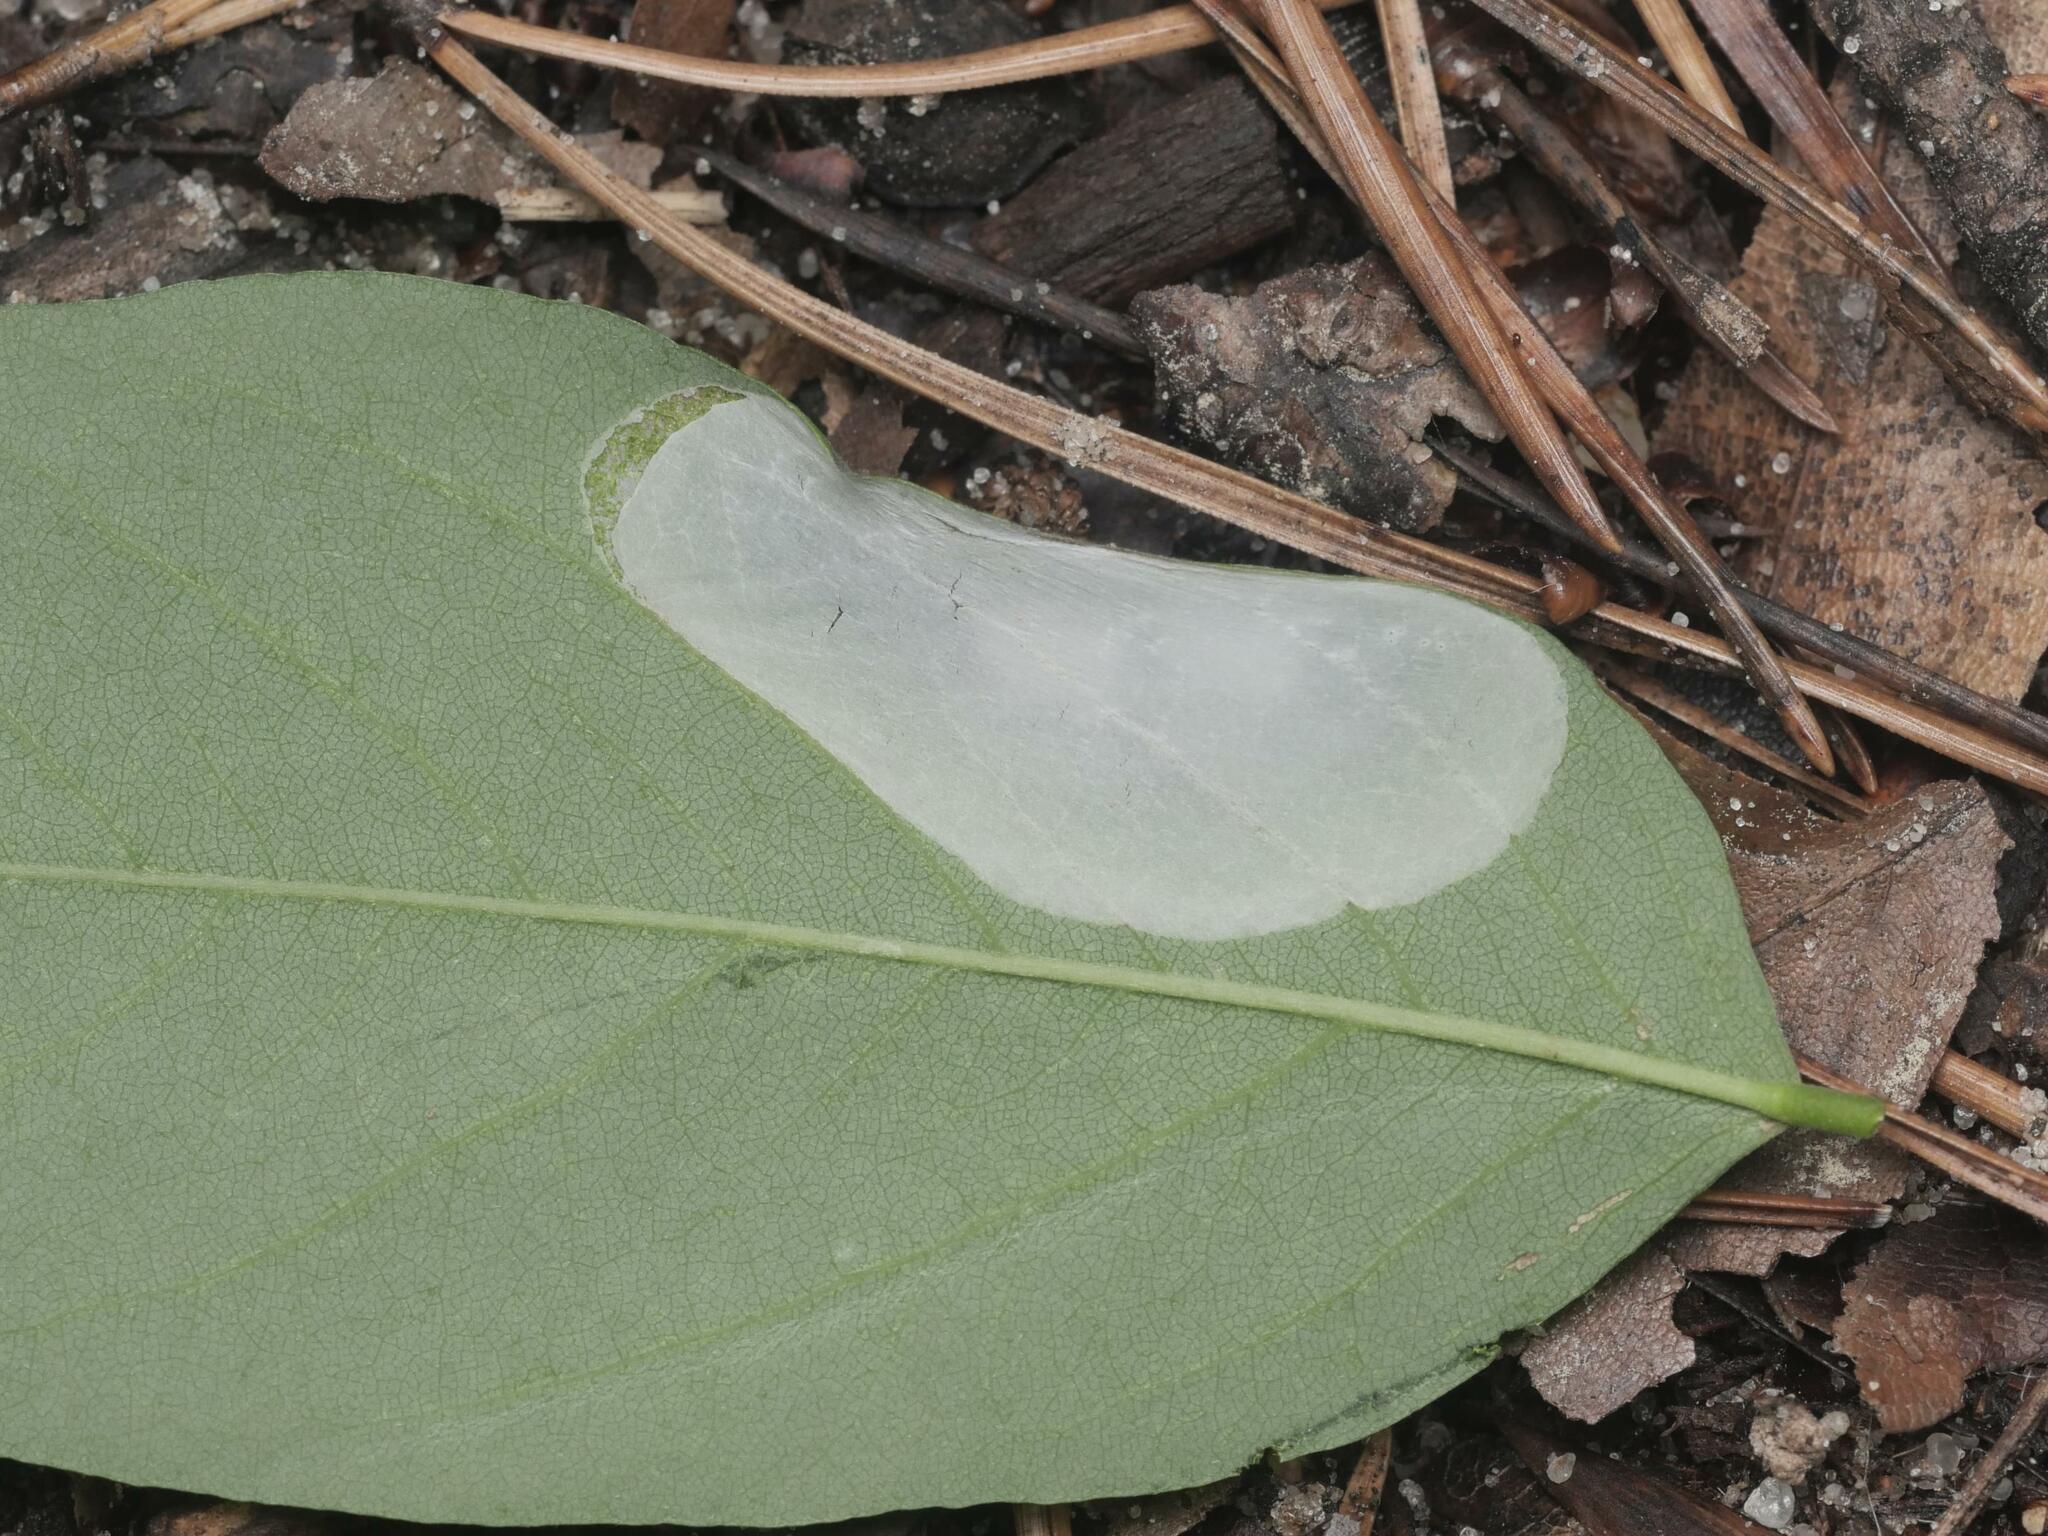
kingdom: Animalia
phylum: Arthropoda
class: Insecta
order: Lepidoptera
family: Gracillariidae
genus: Macrosaccus
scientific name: Macrosaccus robiniella
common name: Leaf blotch miner moth
